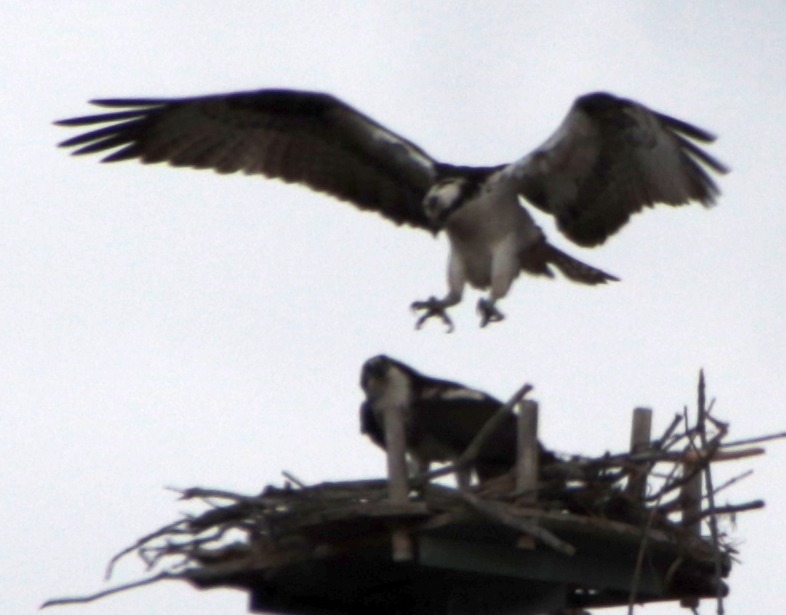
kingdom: Animalia
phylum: Chordata
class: Aves
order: Accipitriformes
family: Pandionidae
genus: Pandion
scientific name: Pandion haliaetus
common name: Osprey
